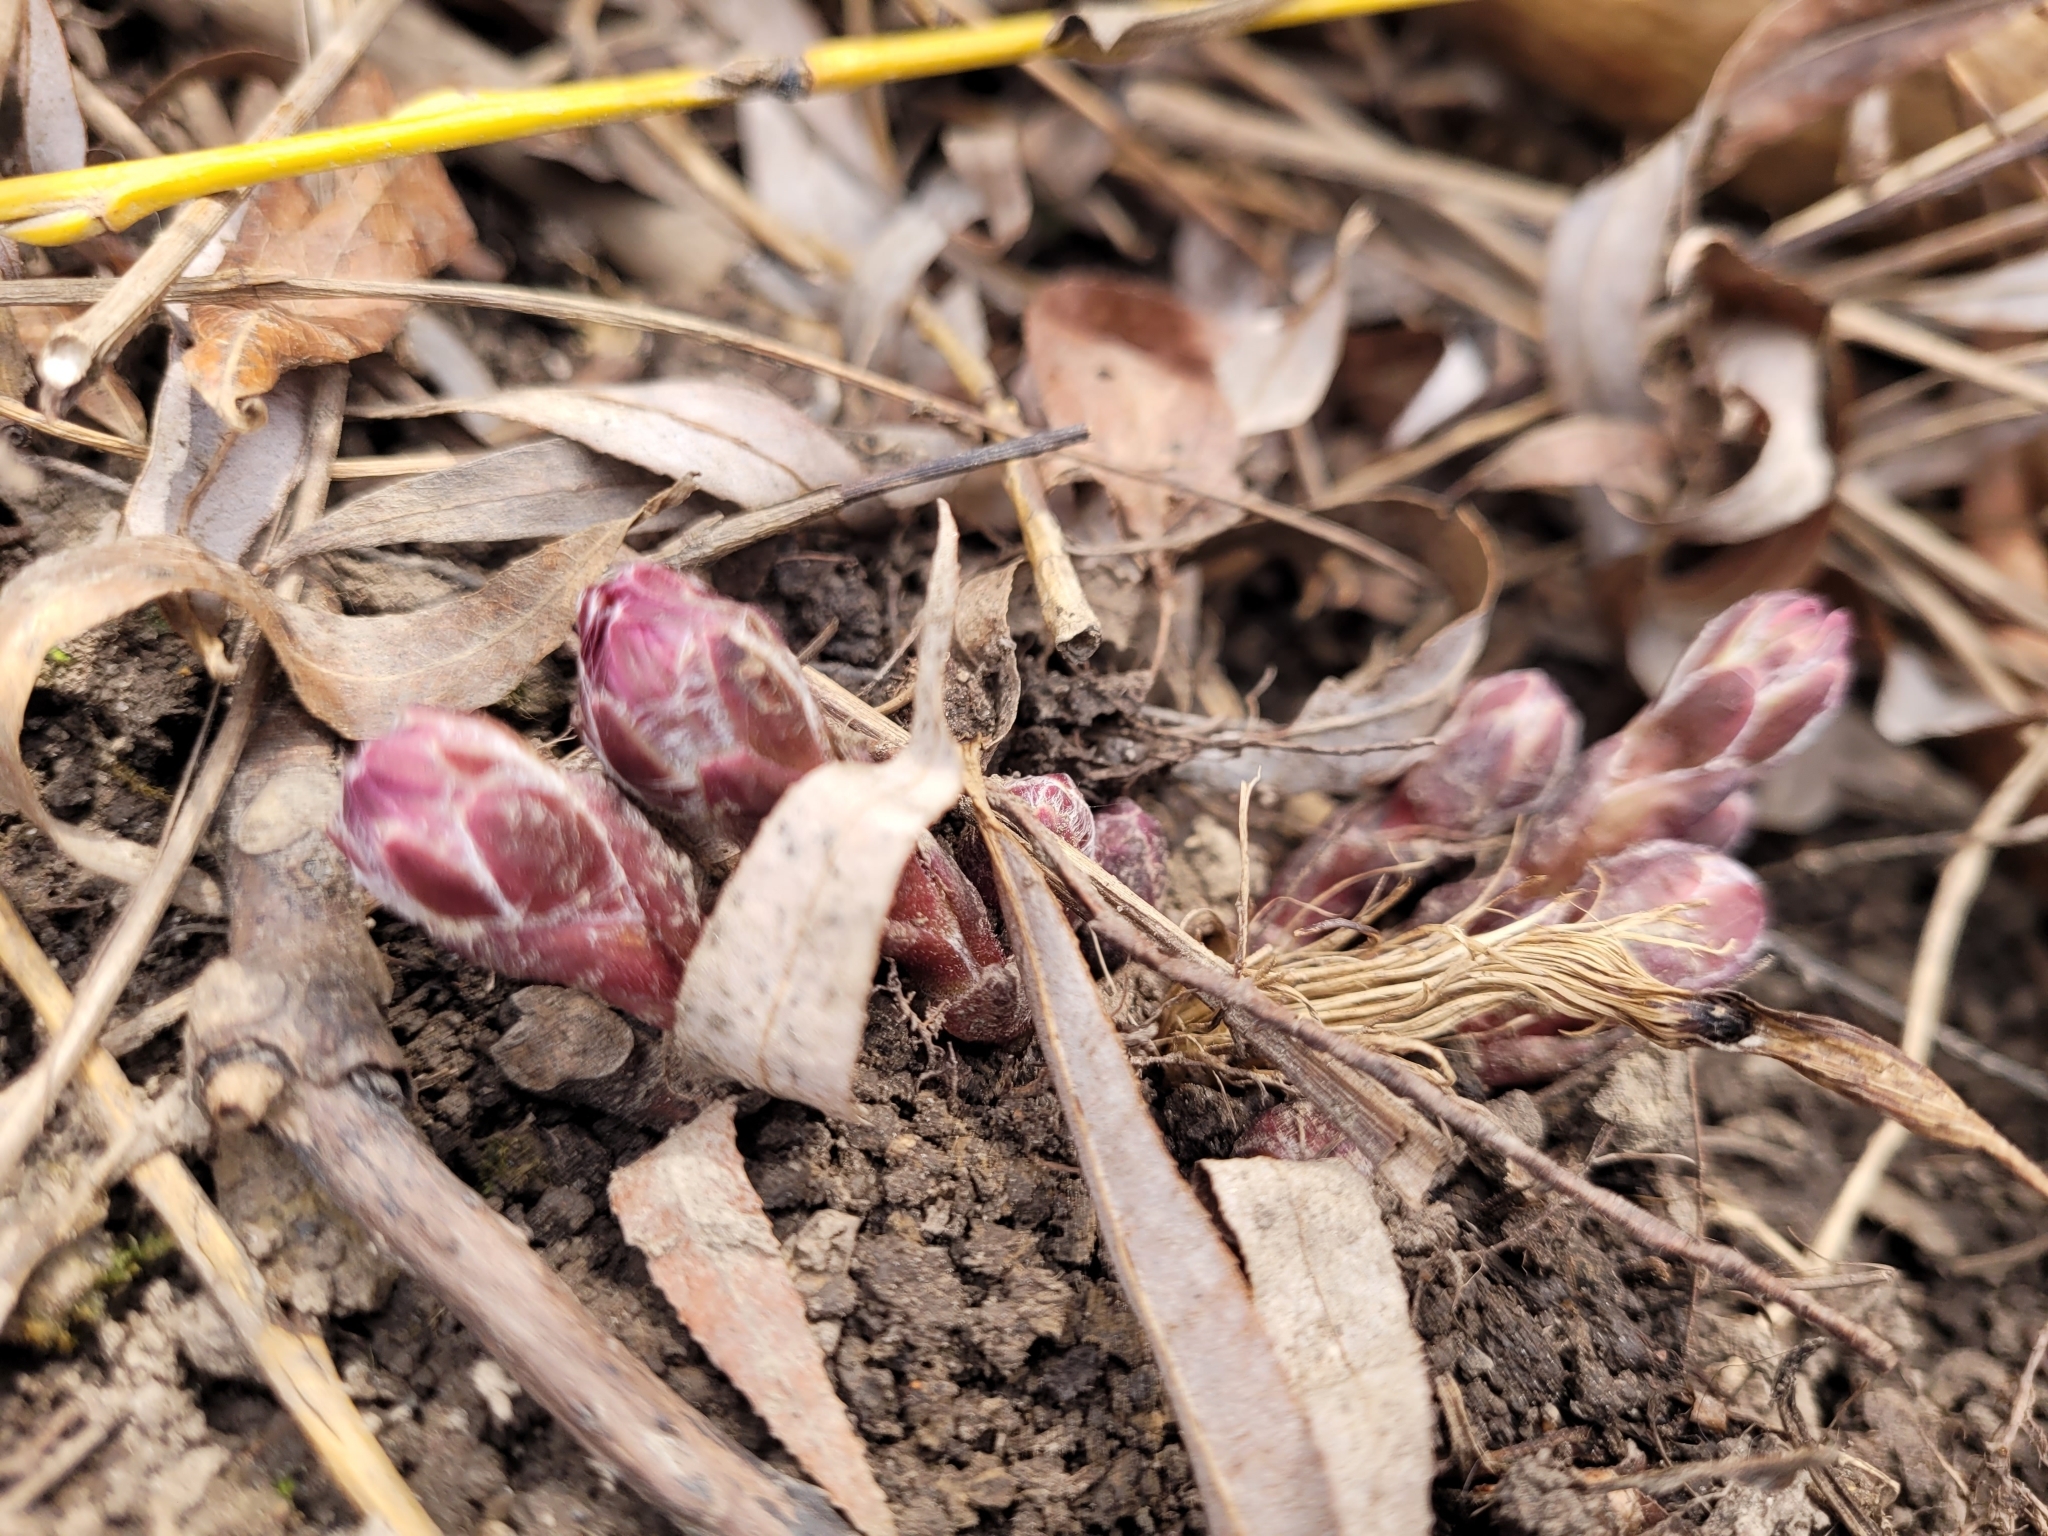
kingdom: Plantae
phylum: Tracheophyta
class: Magnoliopsida
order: Asterales
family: Asteraceae
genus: Tussilago
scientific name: Tussilago farfara
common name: Coltsfoot
